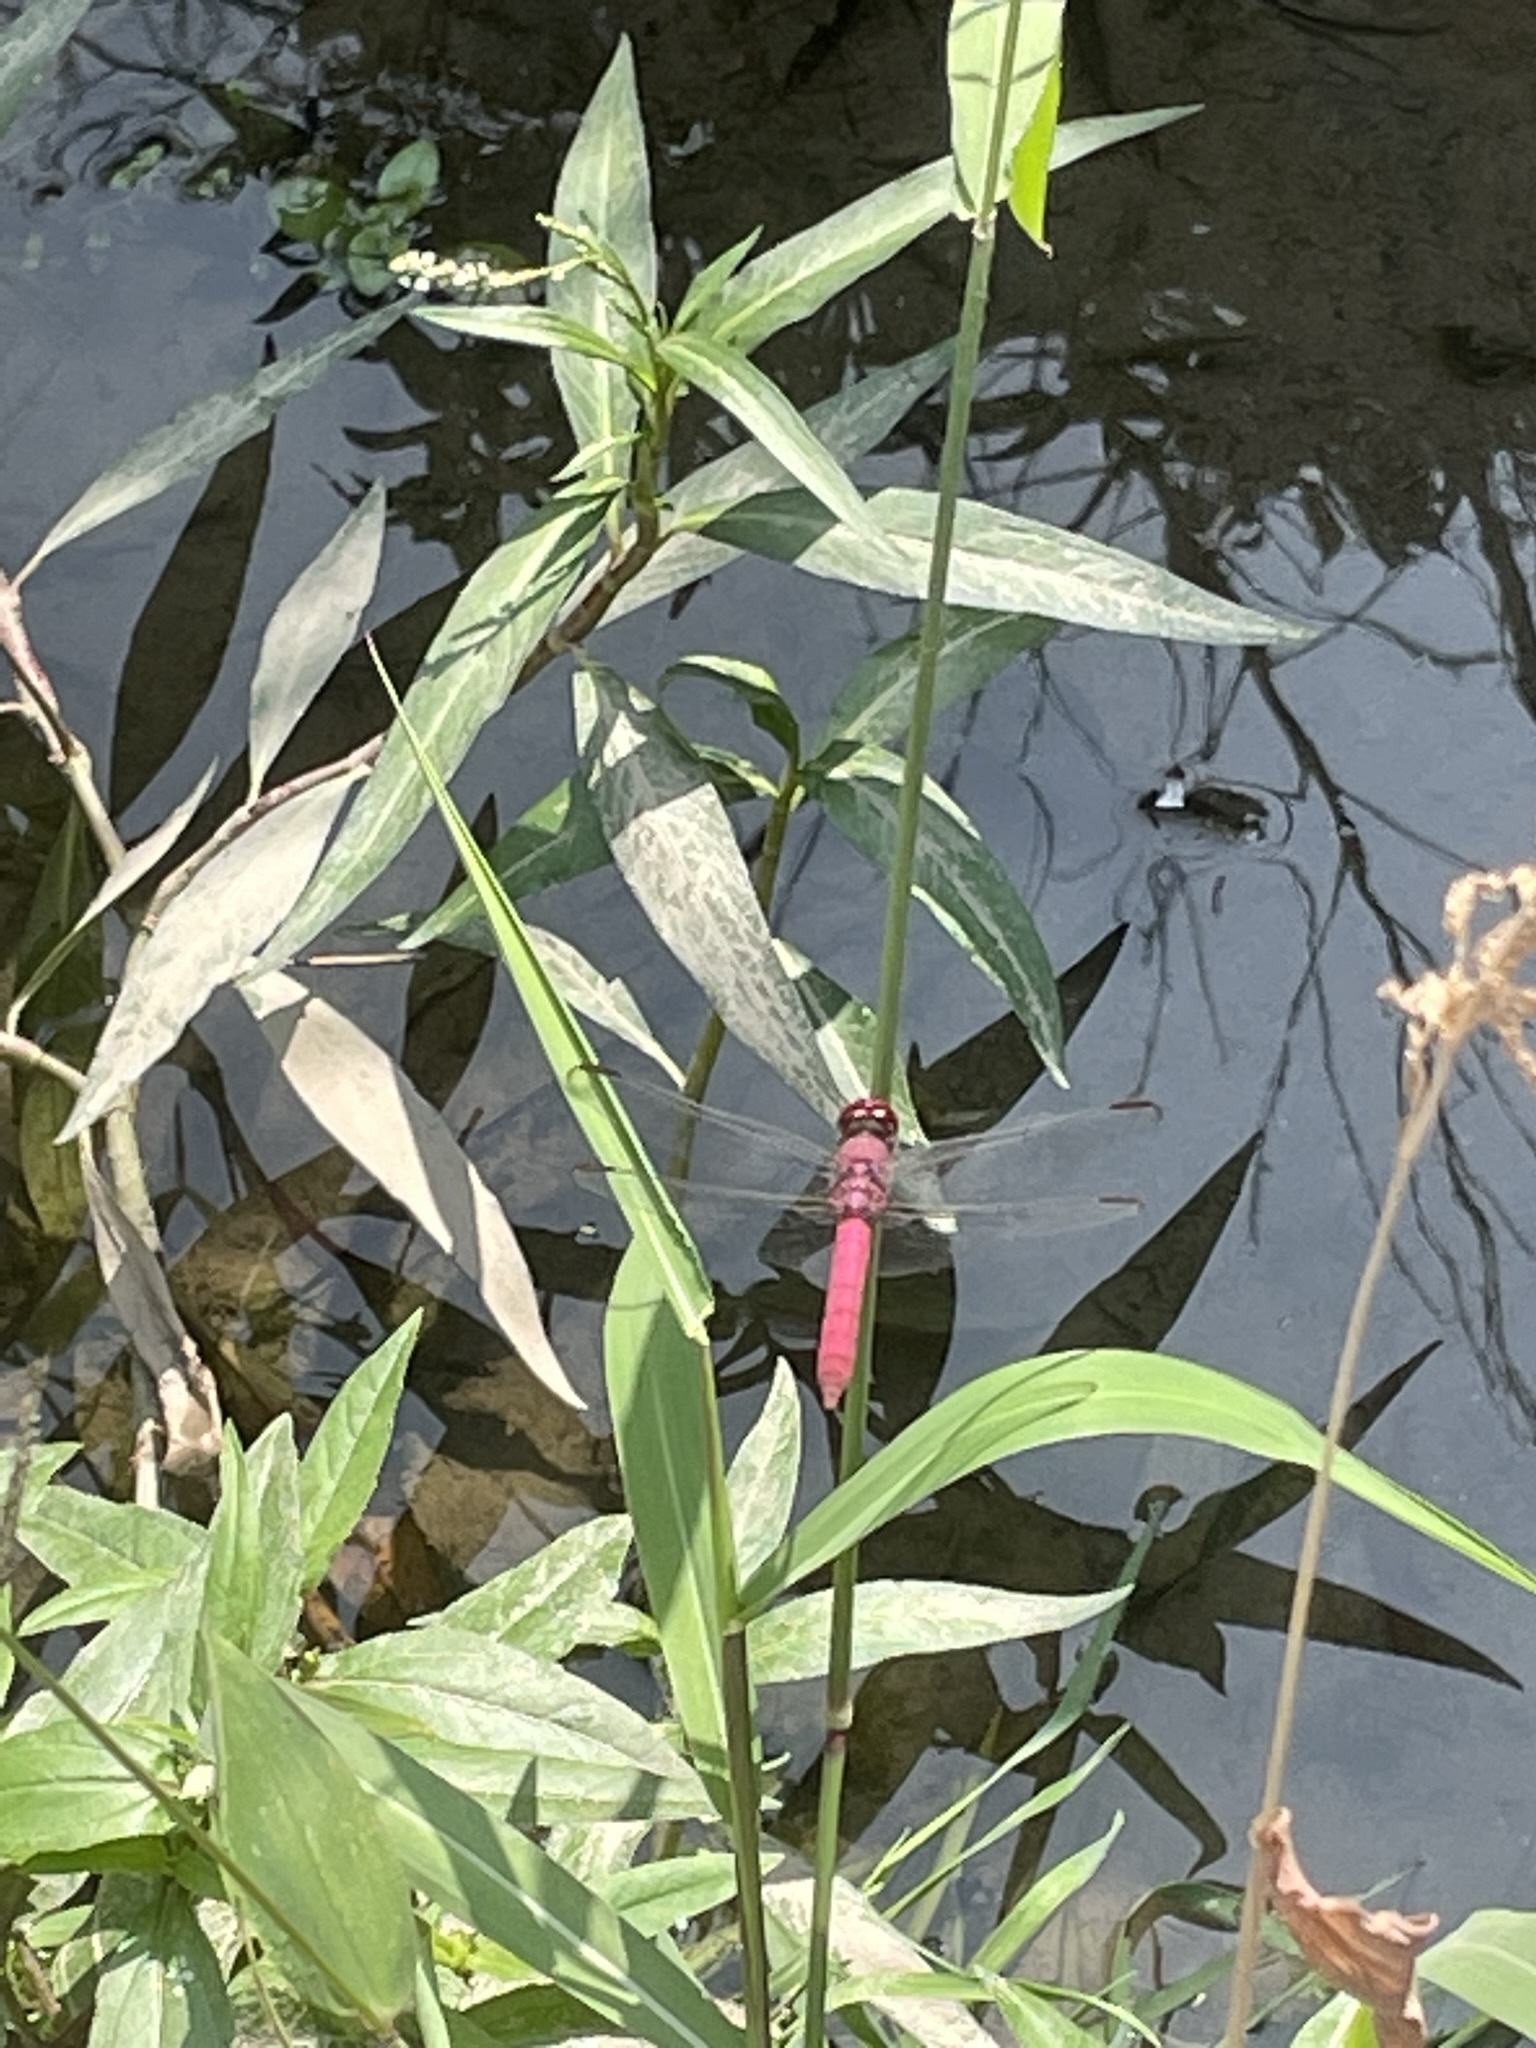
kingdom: Animalia
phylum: Arthropoda
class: Insecta
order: Odonata
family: Libellulidae
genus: Orthemis
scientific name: Orthemis discolor
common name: Carmine skimmer
